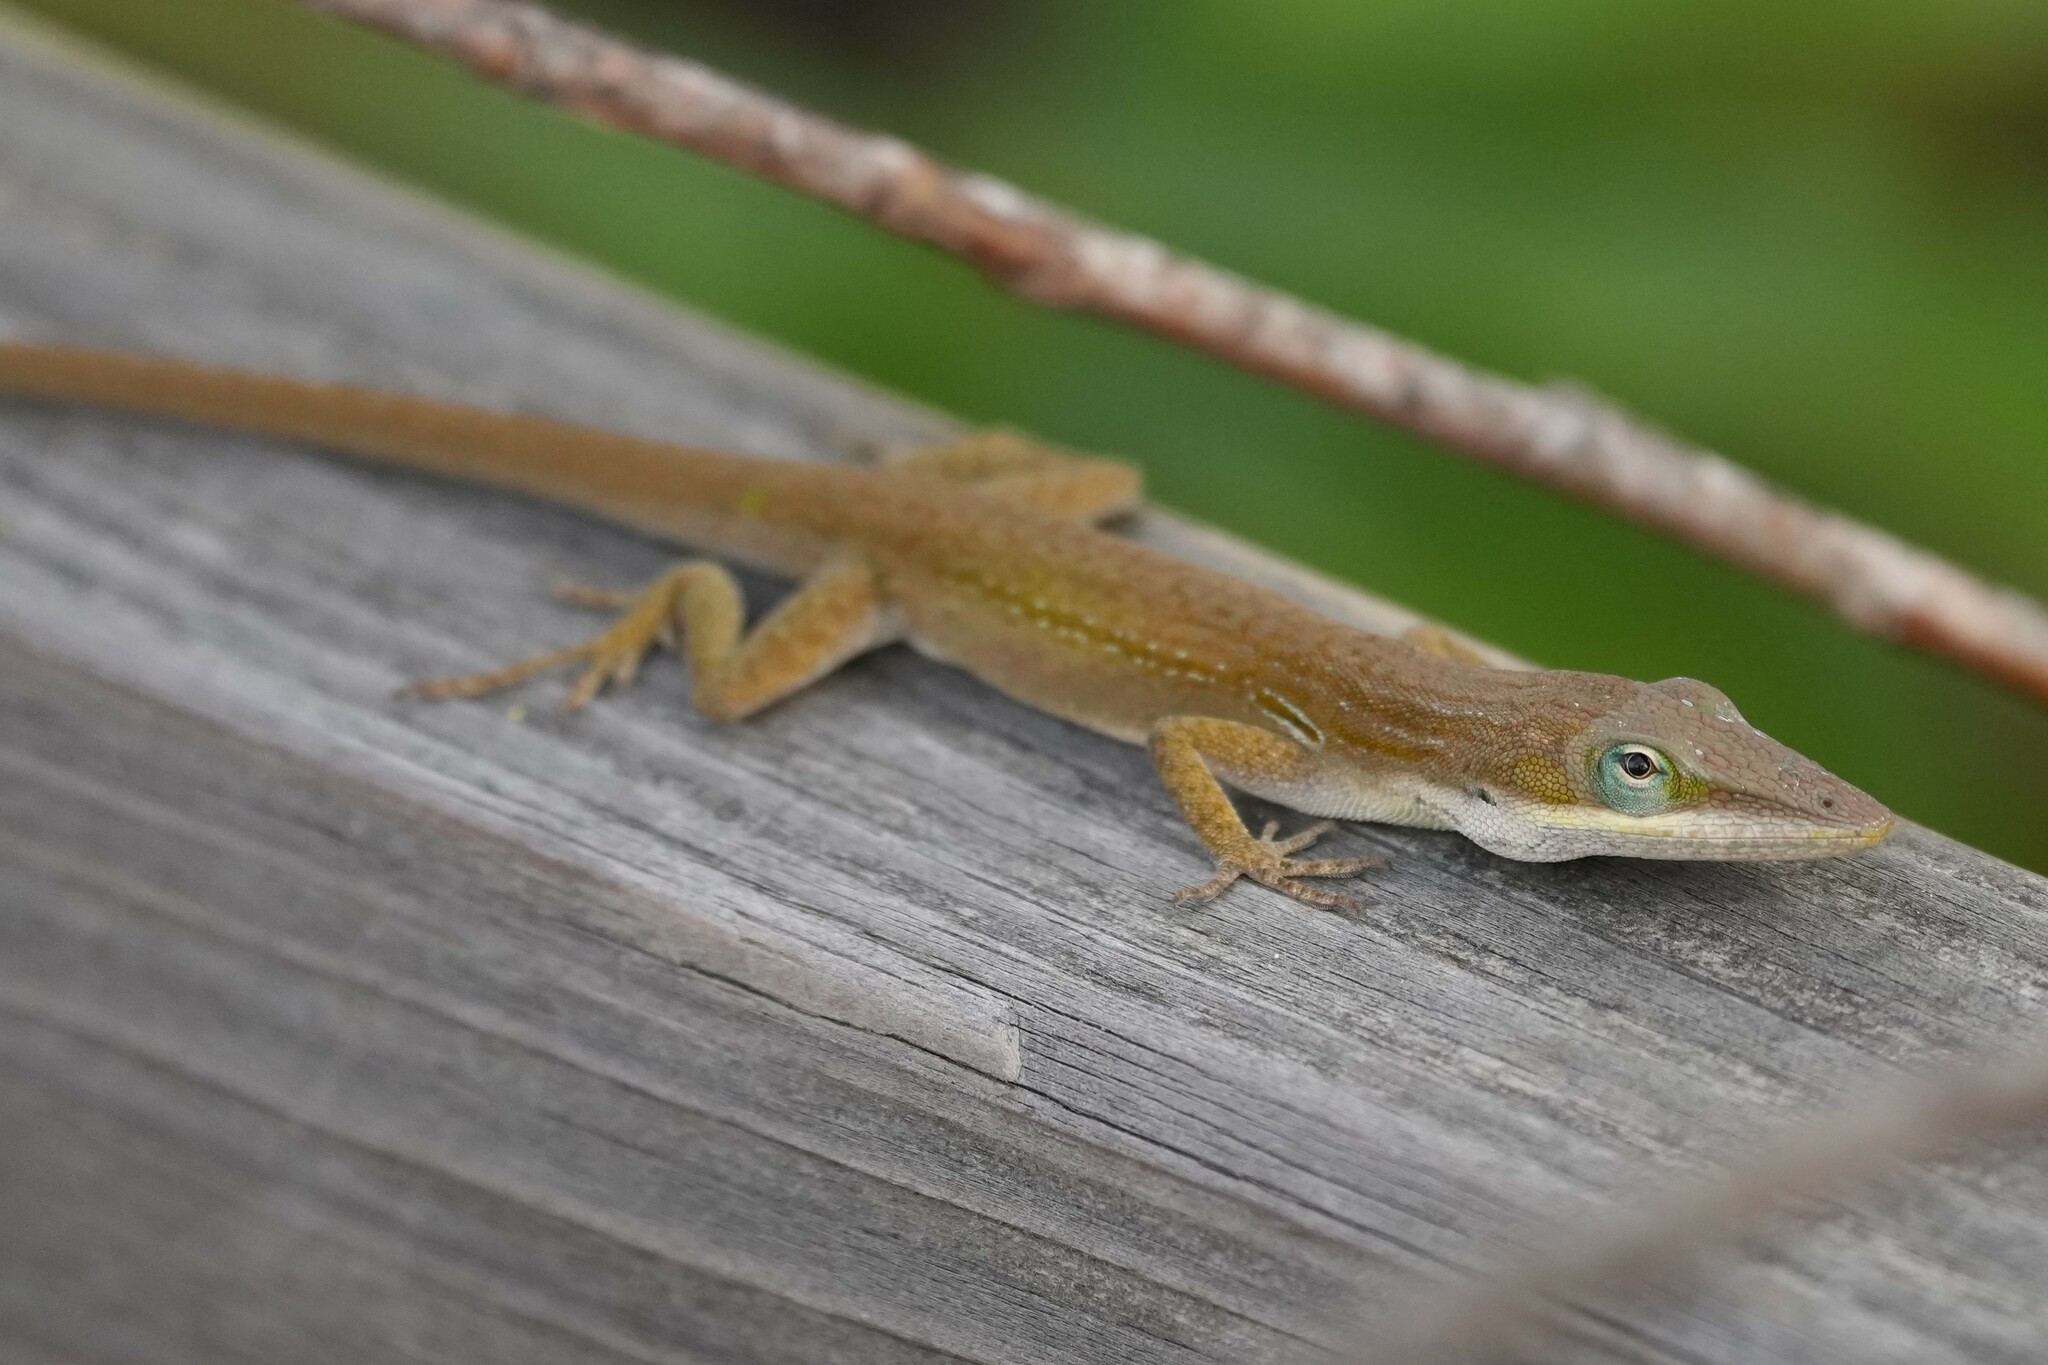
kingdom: Animalia
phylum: Chordata
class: Squamata
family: Dactyloidae
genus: Anolis
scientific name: Anolis carolinensis
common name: Green anole
